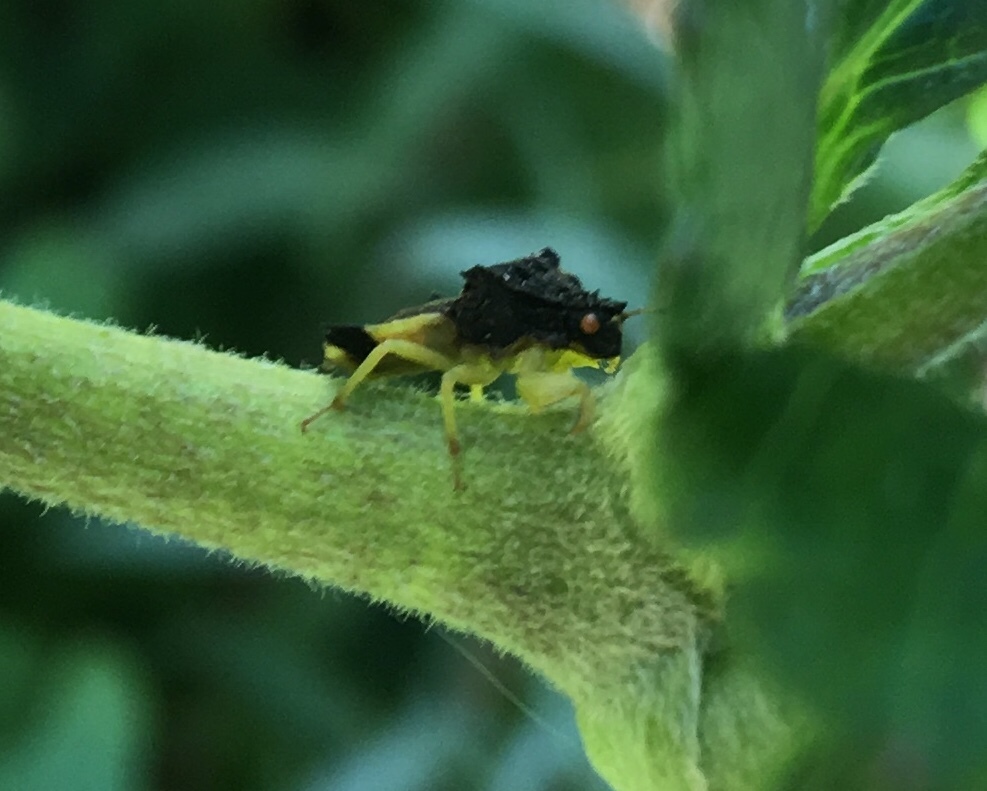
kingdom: Animalia
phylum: Arthropoda
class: Insecta
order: Hemiptera
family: Reduviidae
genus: Phymata
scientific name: Phymata pennsylvanica
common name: Pennsylvania ambush bug
